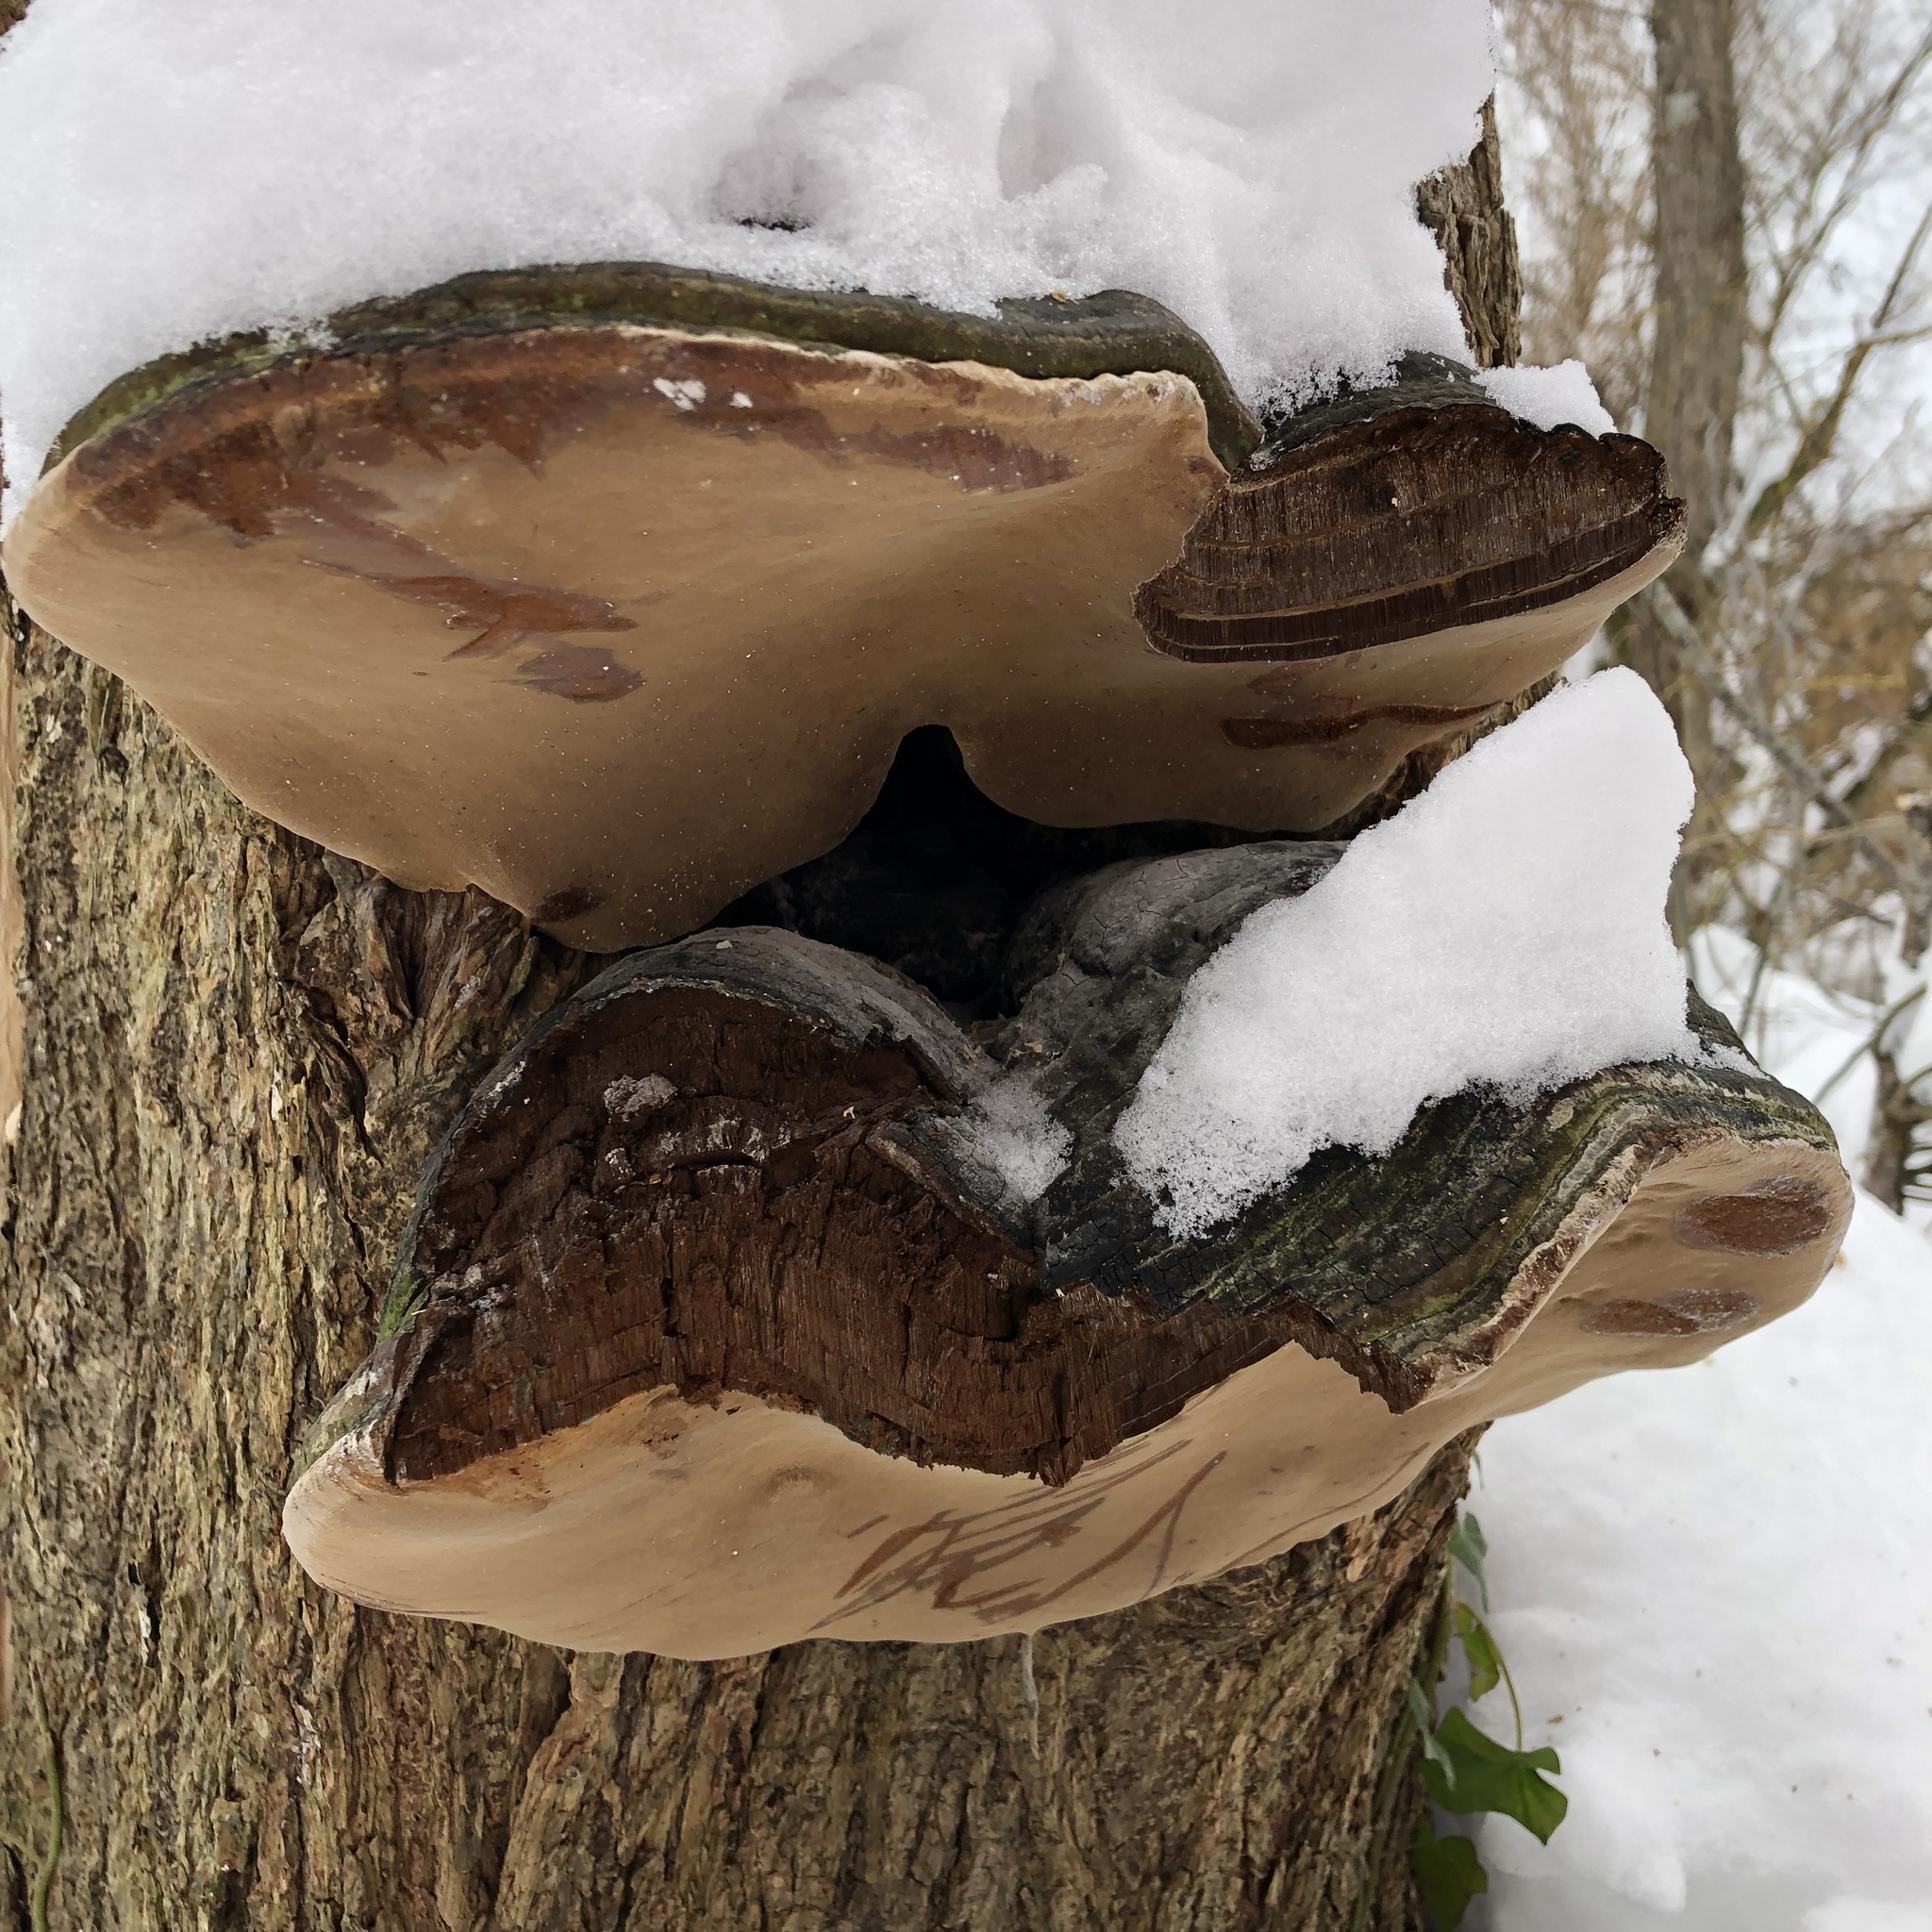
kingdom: Fungi
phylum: Basidiomycota
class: Agaricomycetes
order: Polyporales
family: Polyporaceae
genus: Ganoderma
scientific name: Ganoderma applanatum
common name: Artist's bracket
